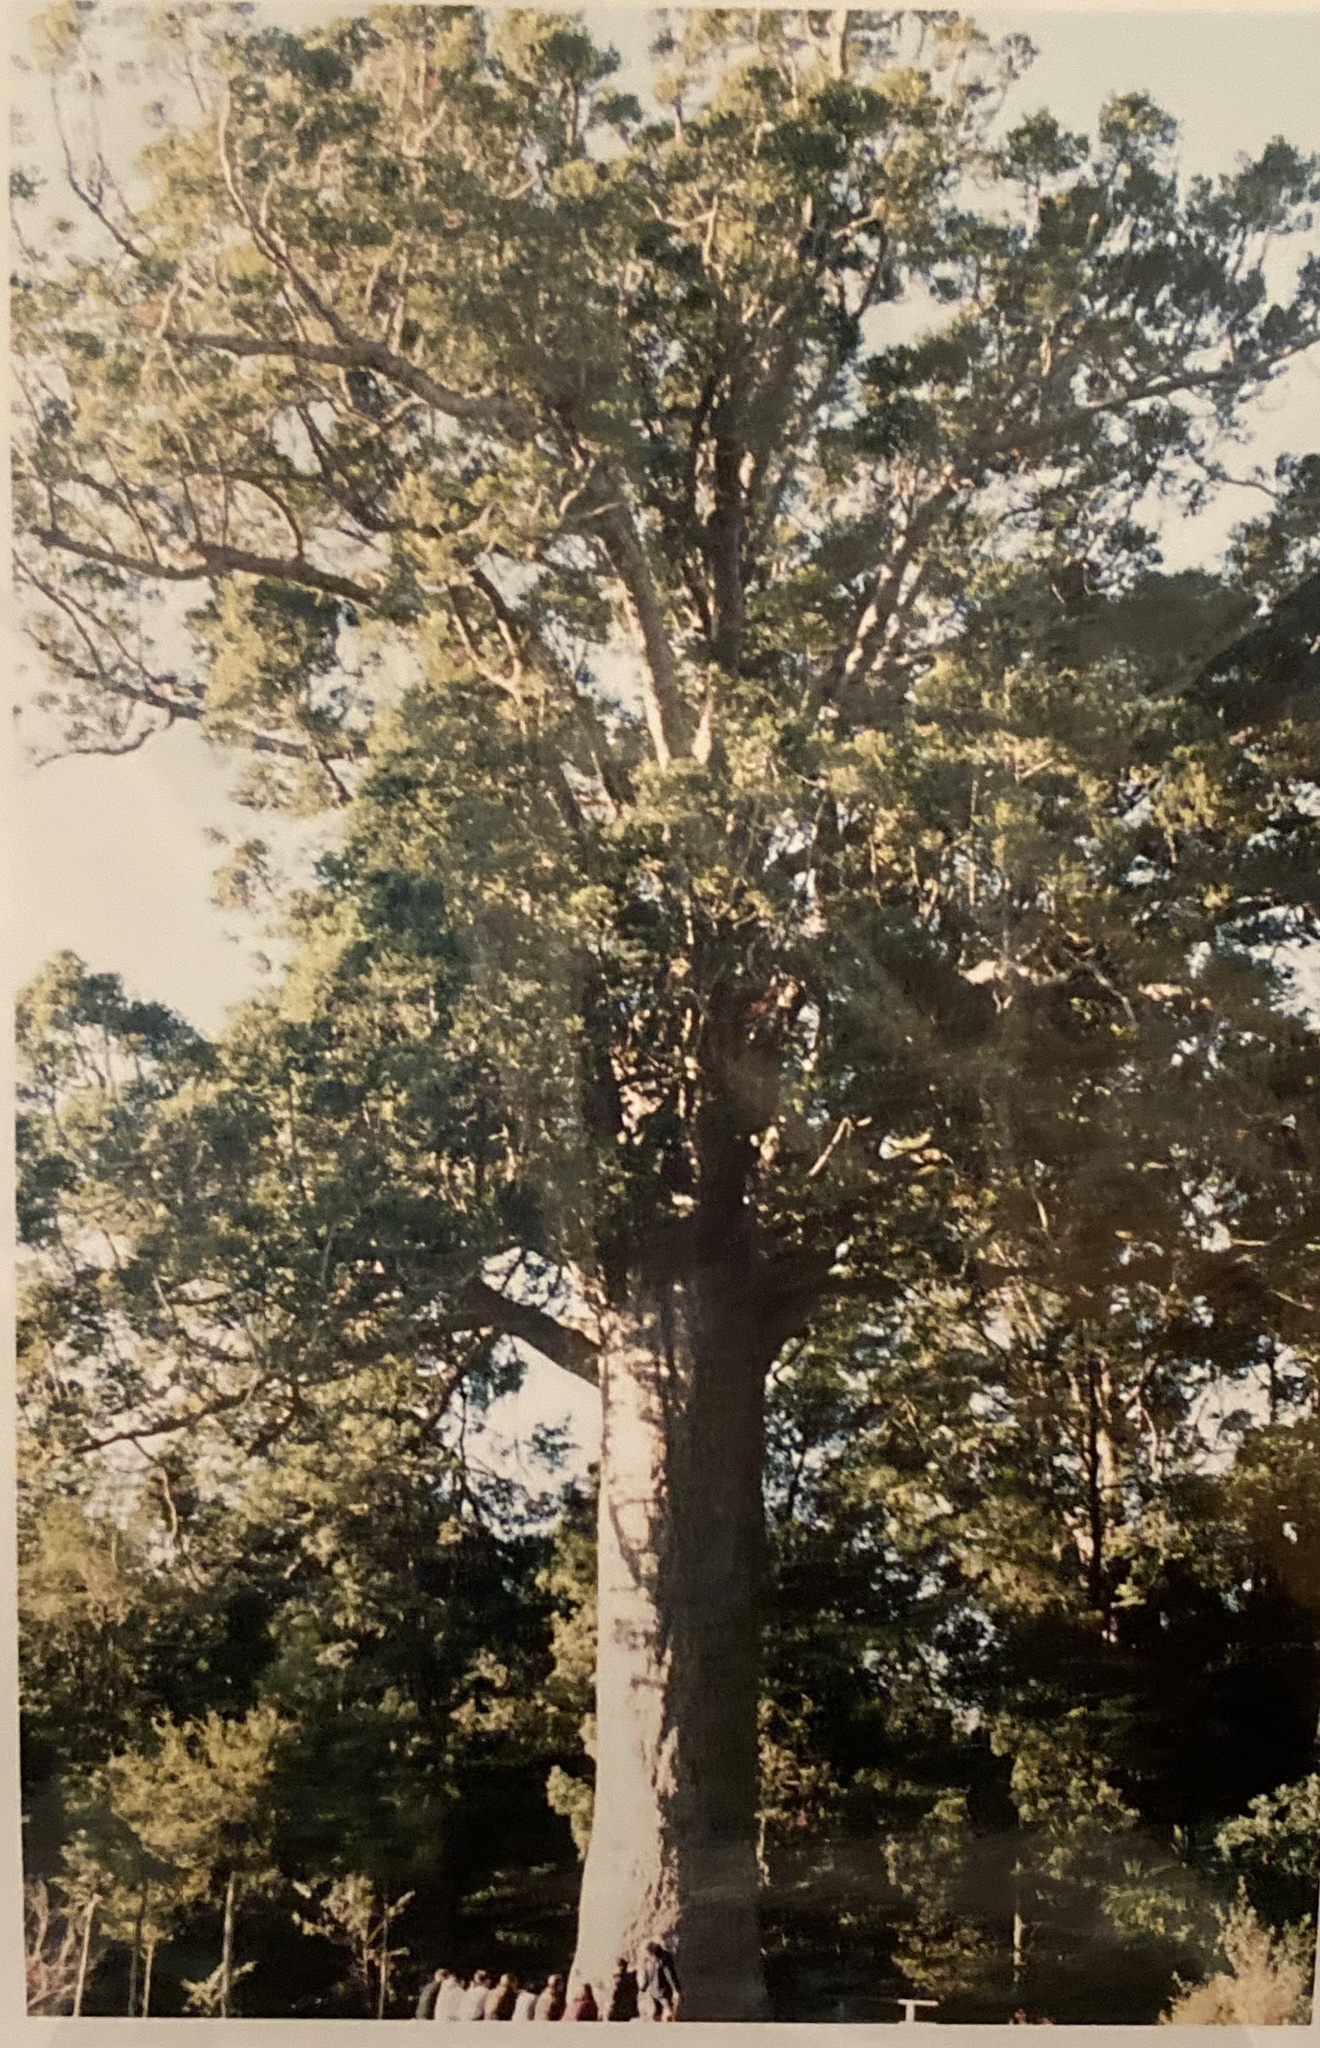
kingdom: Plantae
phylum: Tracheophyta
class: Pinopsida
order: Pinales
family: Araucariaceae
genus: Agathis
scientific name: Agathis australis
